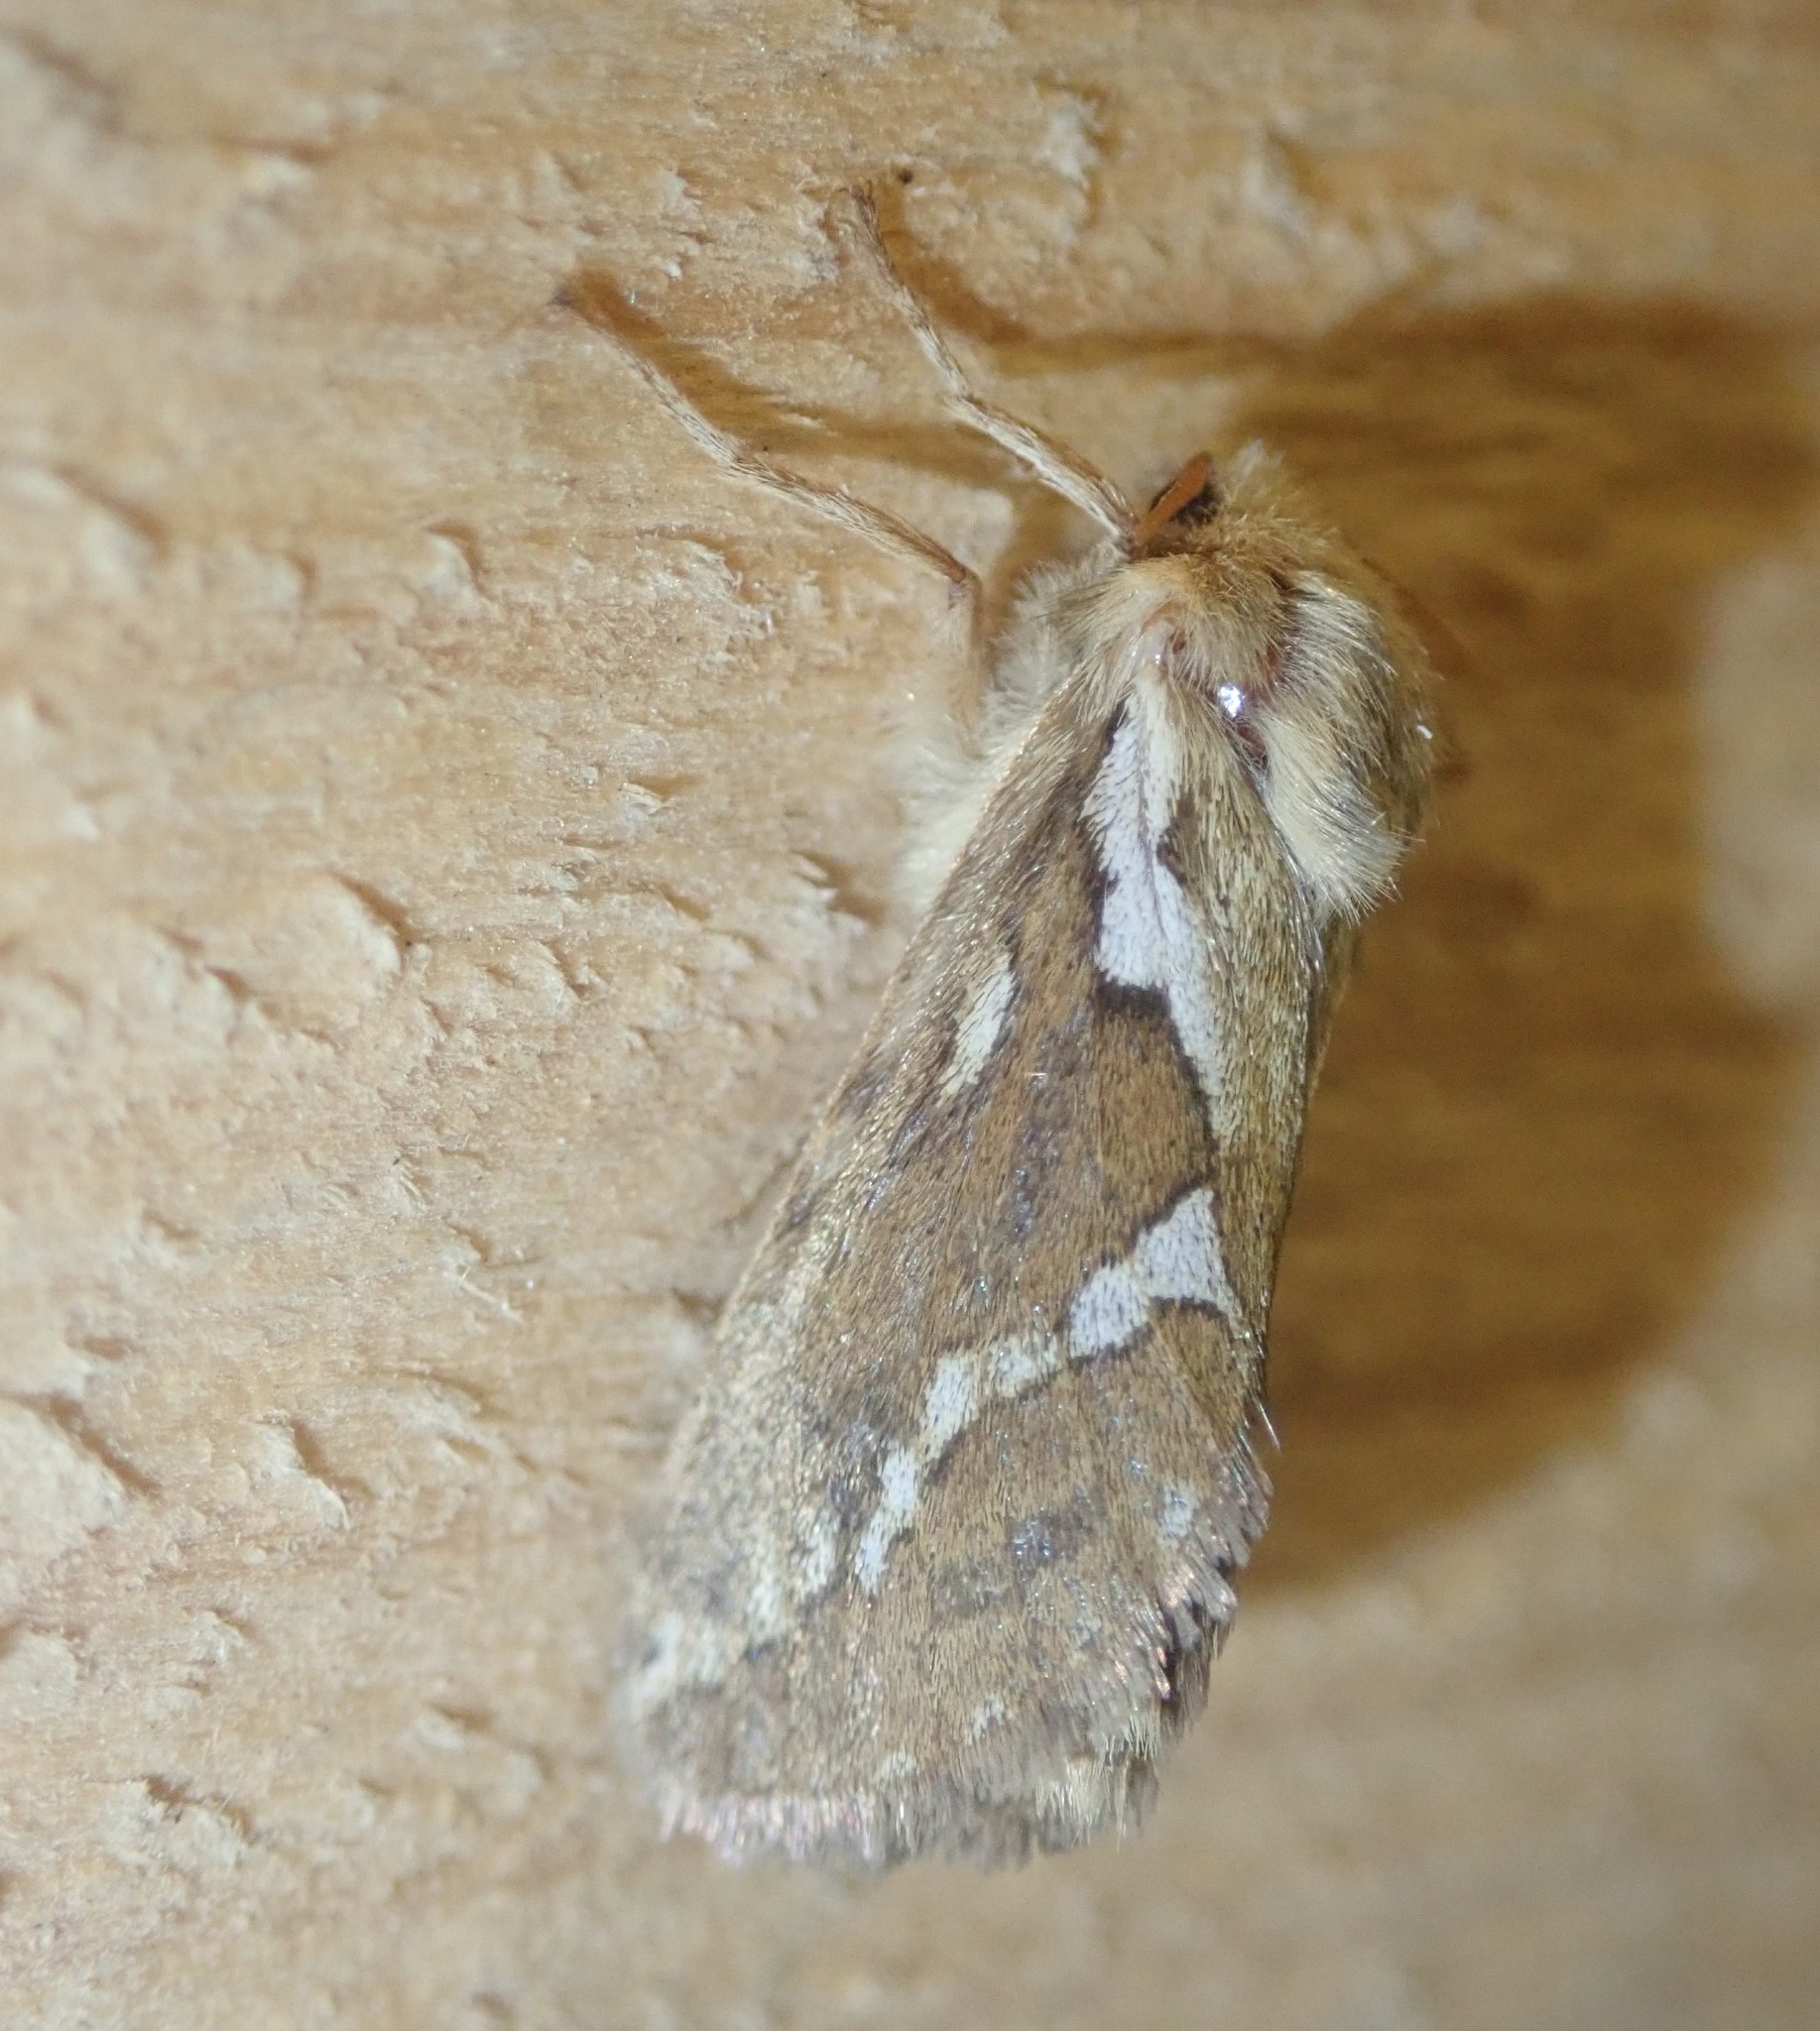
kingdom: Animalia
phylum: Arthropoda
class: Insecta
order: Lepidoptera
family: Hepialidae
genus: Korscheltellus
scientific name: Korscheltellus lupulina
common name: Common swift
